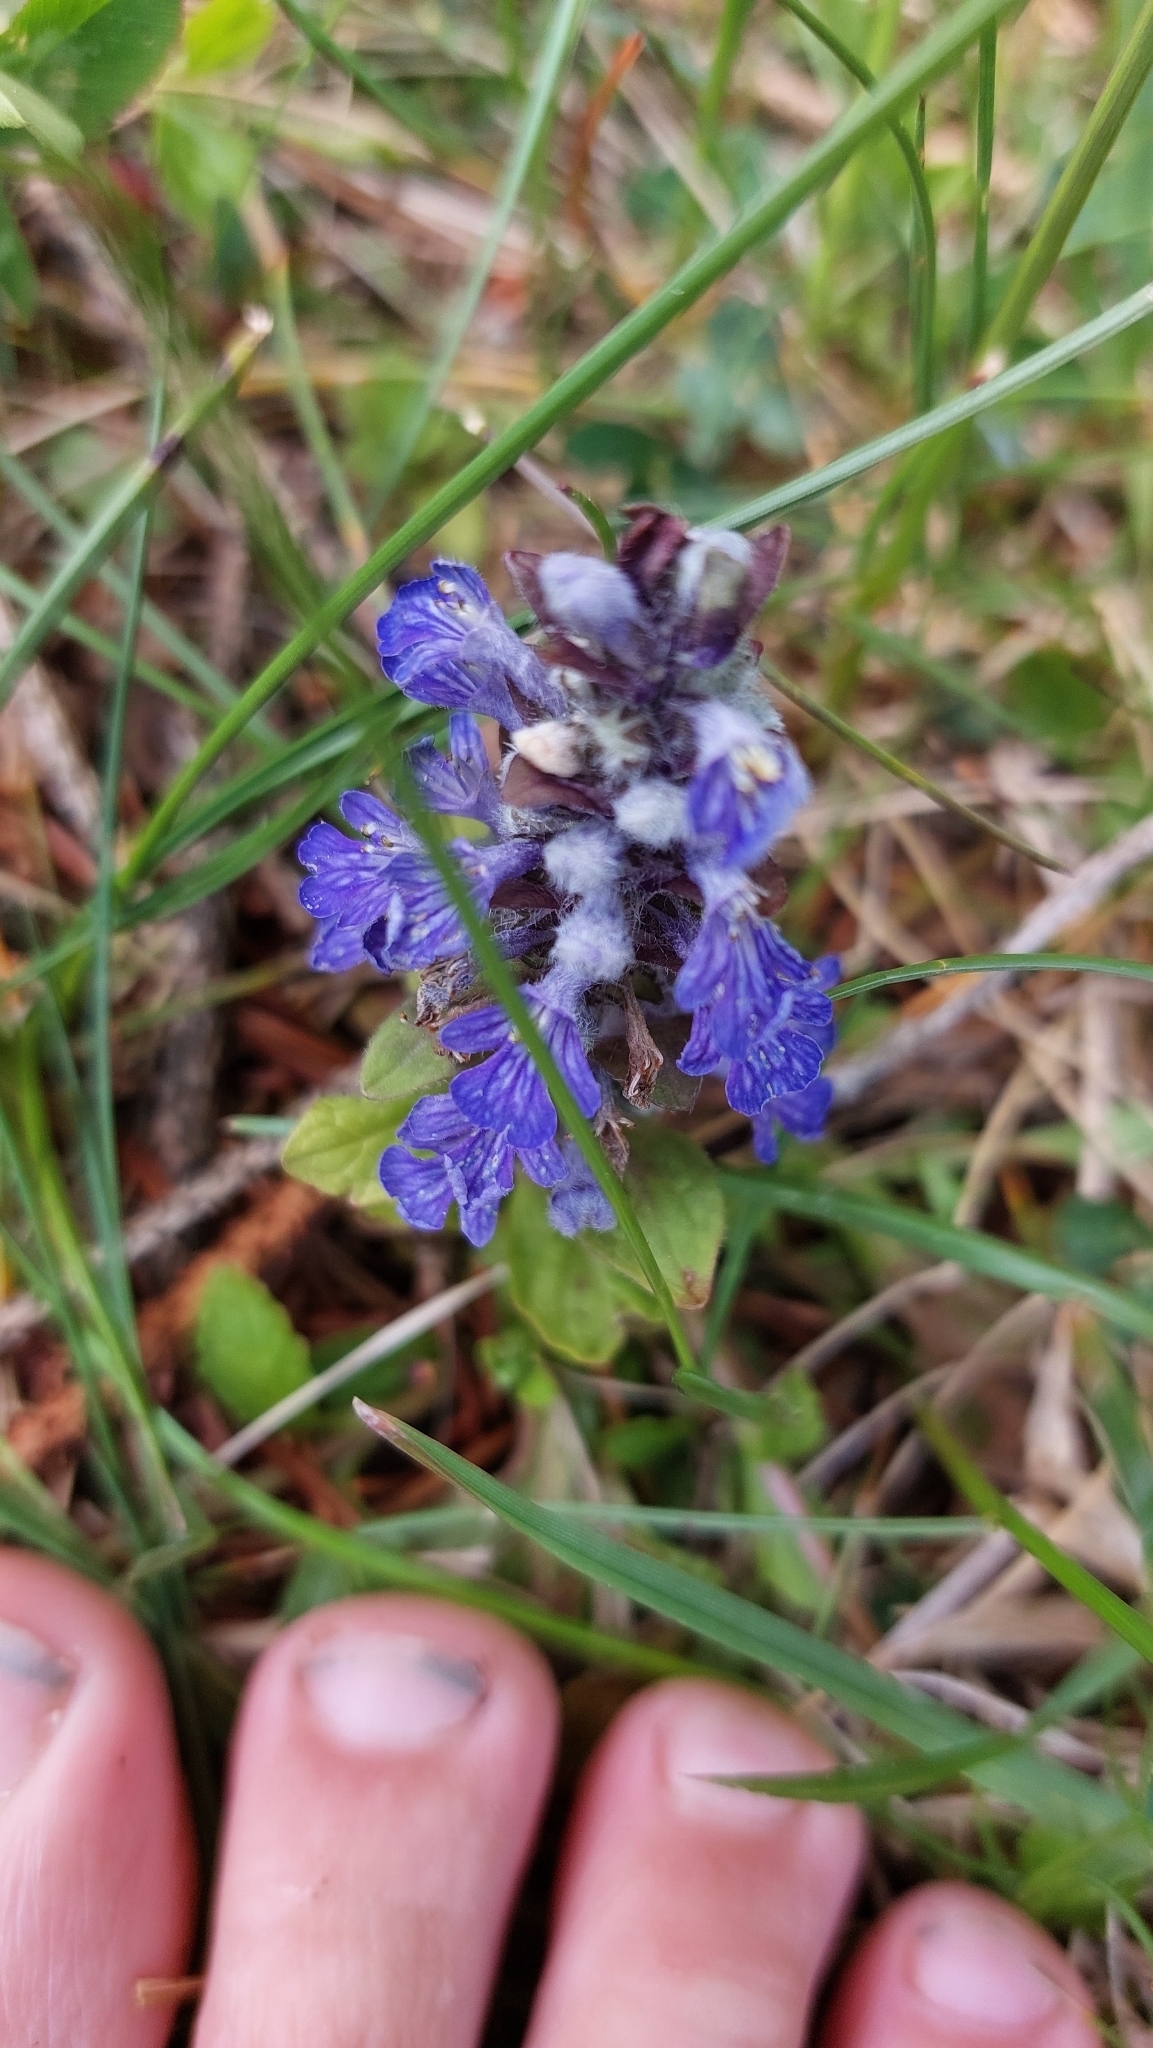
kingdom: Plantae
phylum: Tracheophyta
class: Magnoliopsida
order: Lamiales
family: Lamiaceae
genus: Ajuga
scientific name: Ajuga reptans
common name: Bugle
